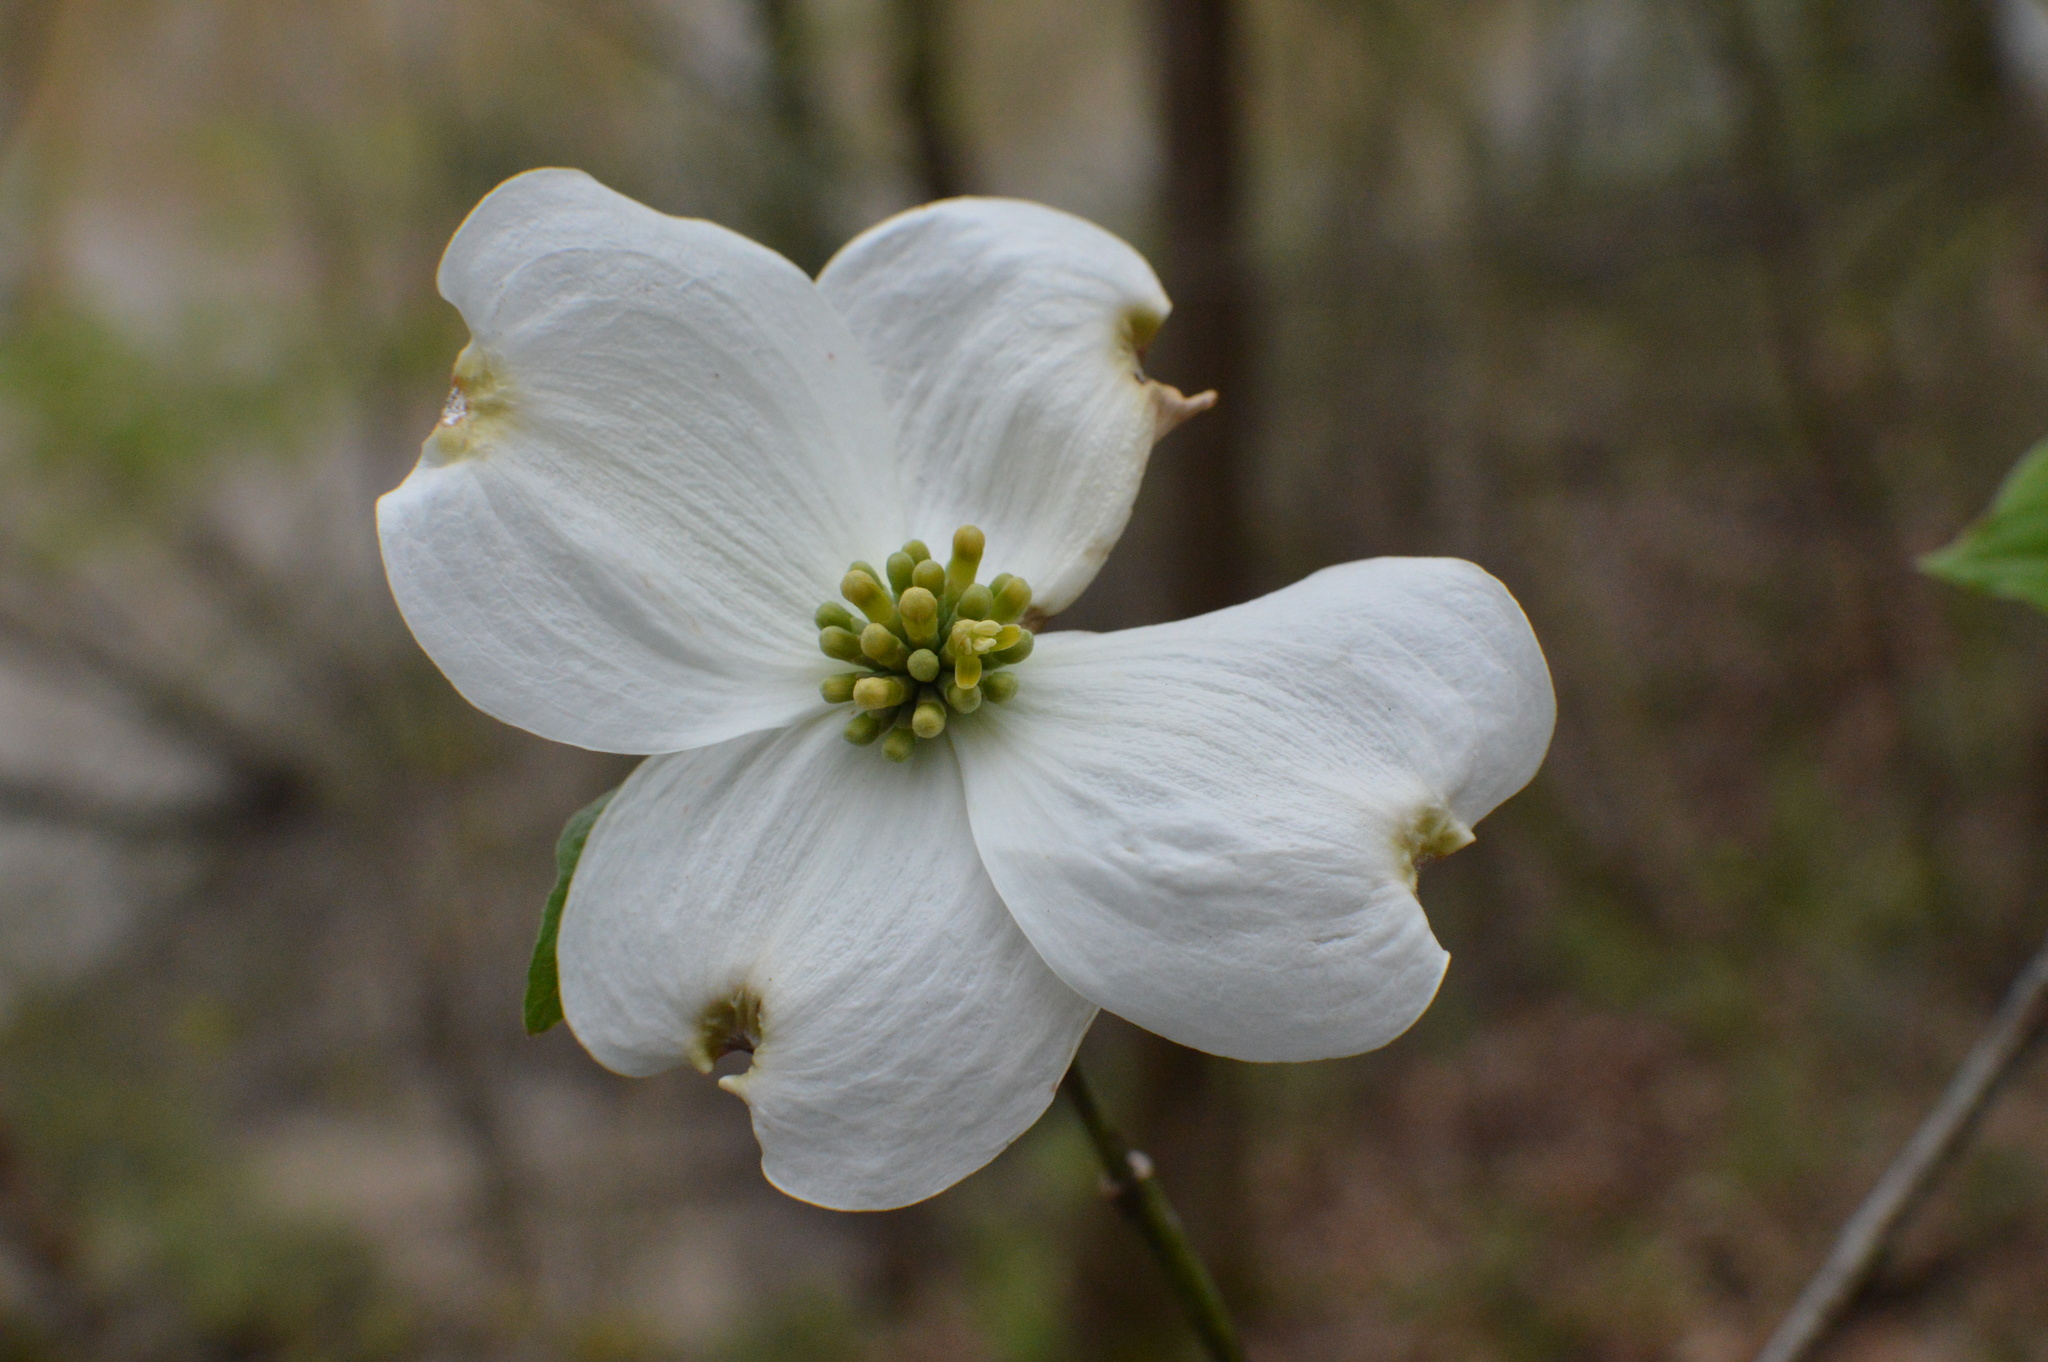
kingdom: Plantae
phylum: Tracheophyta
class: Magnoliopsida
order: Cornales
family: Cornaceae
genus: Cornus
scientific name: Cornus florida
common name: Flowering dogwood
